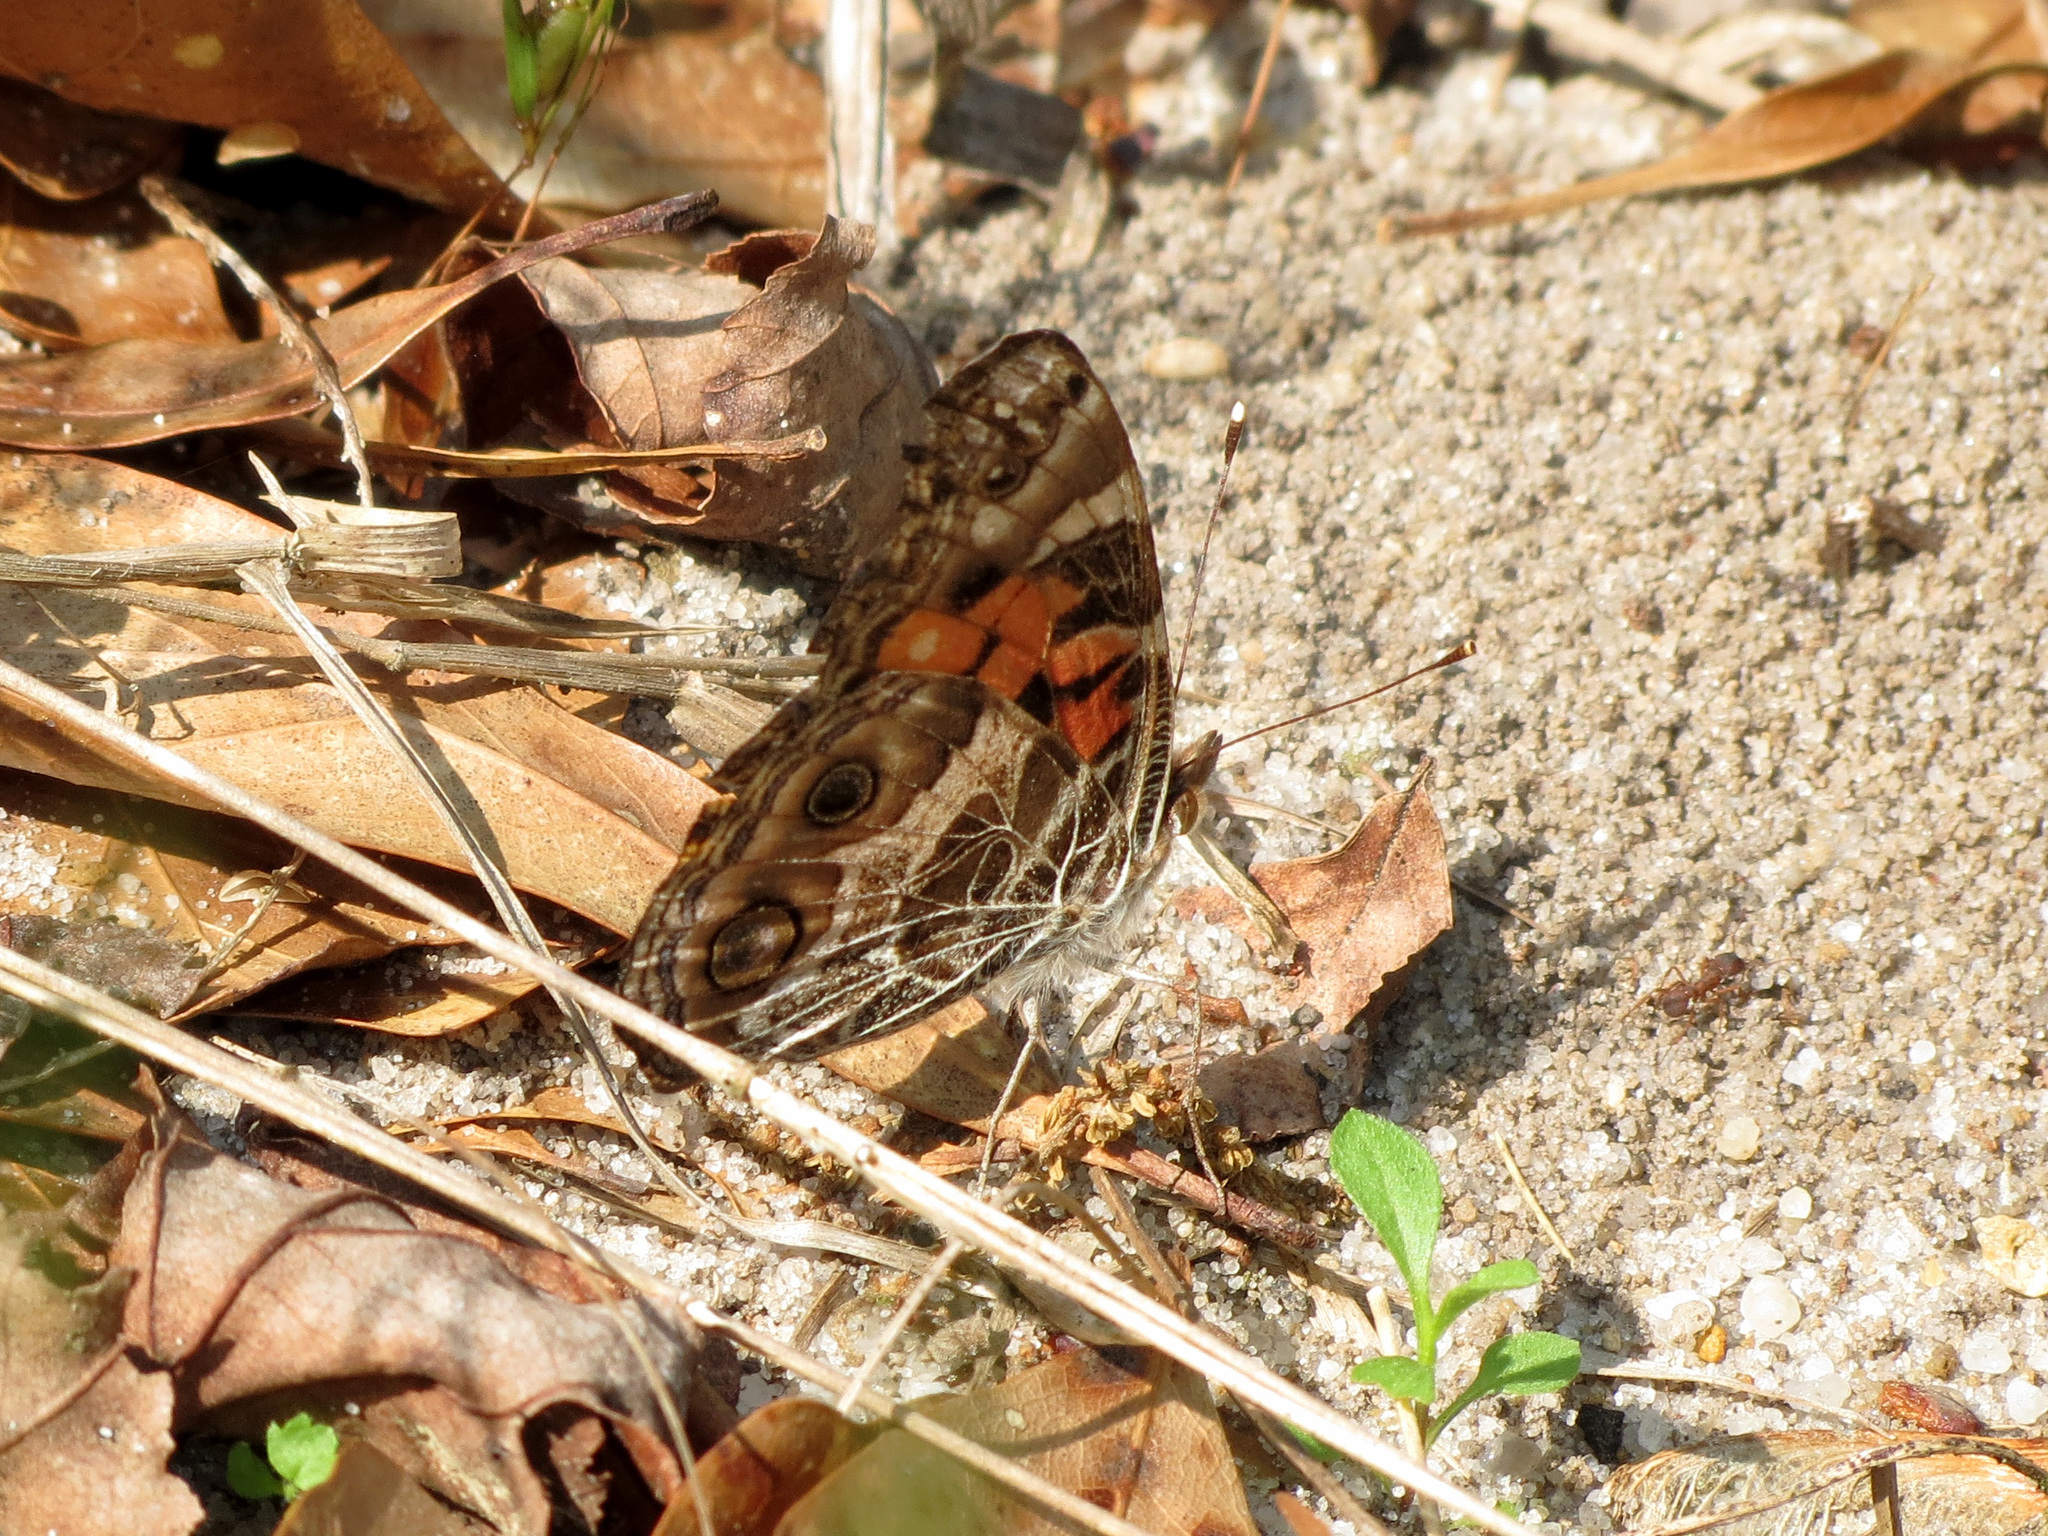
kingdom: Animalia
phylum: Arthropoda
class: Insecta
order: Lepidoptera
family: Nymphalidae
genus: Vanessa
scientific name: Vanessa virginiensis
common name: American lady
